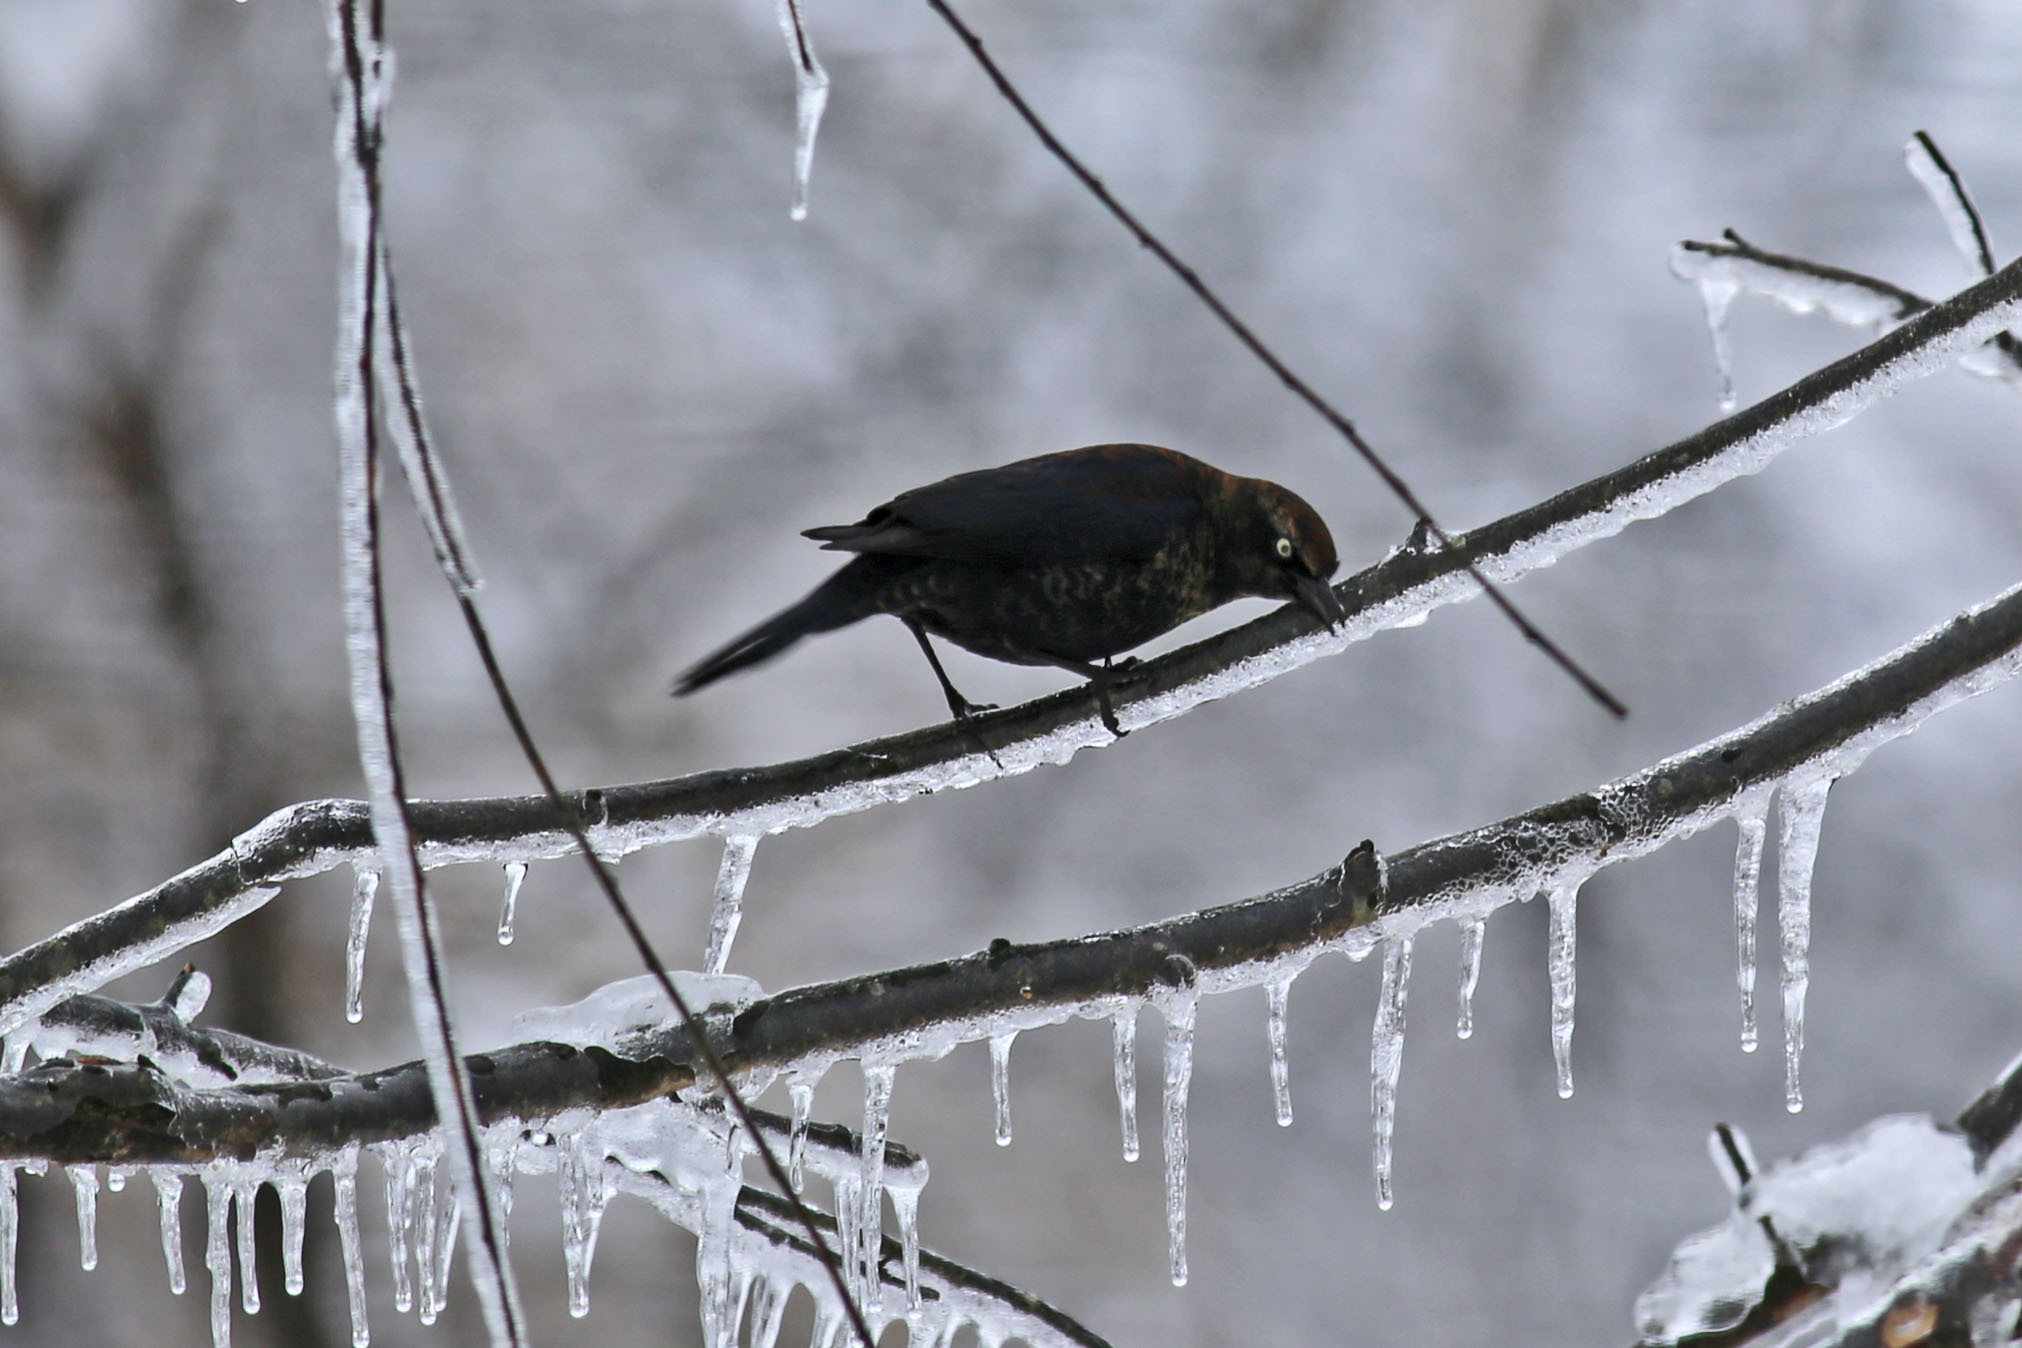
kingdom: Animalia
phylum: Chordata
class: Aves
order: Passeriformes
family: Icteridae
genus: Euphagus
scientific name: Euphagus carolinus
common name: Rusty blackbird
